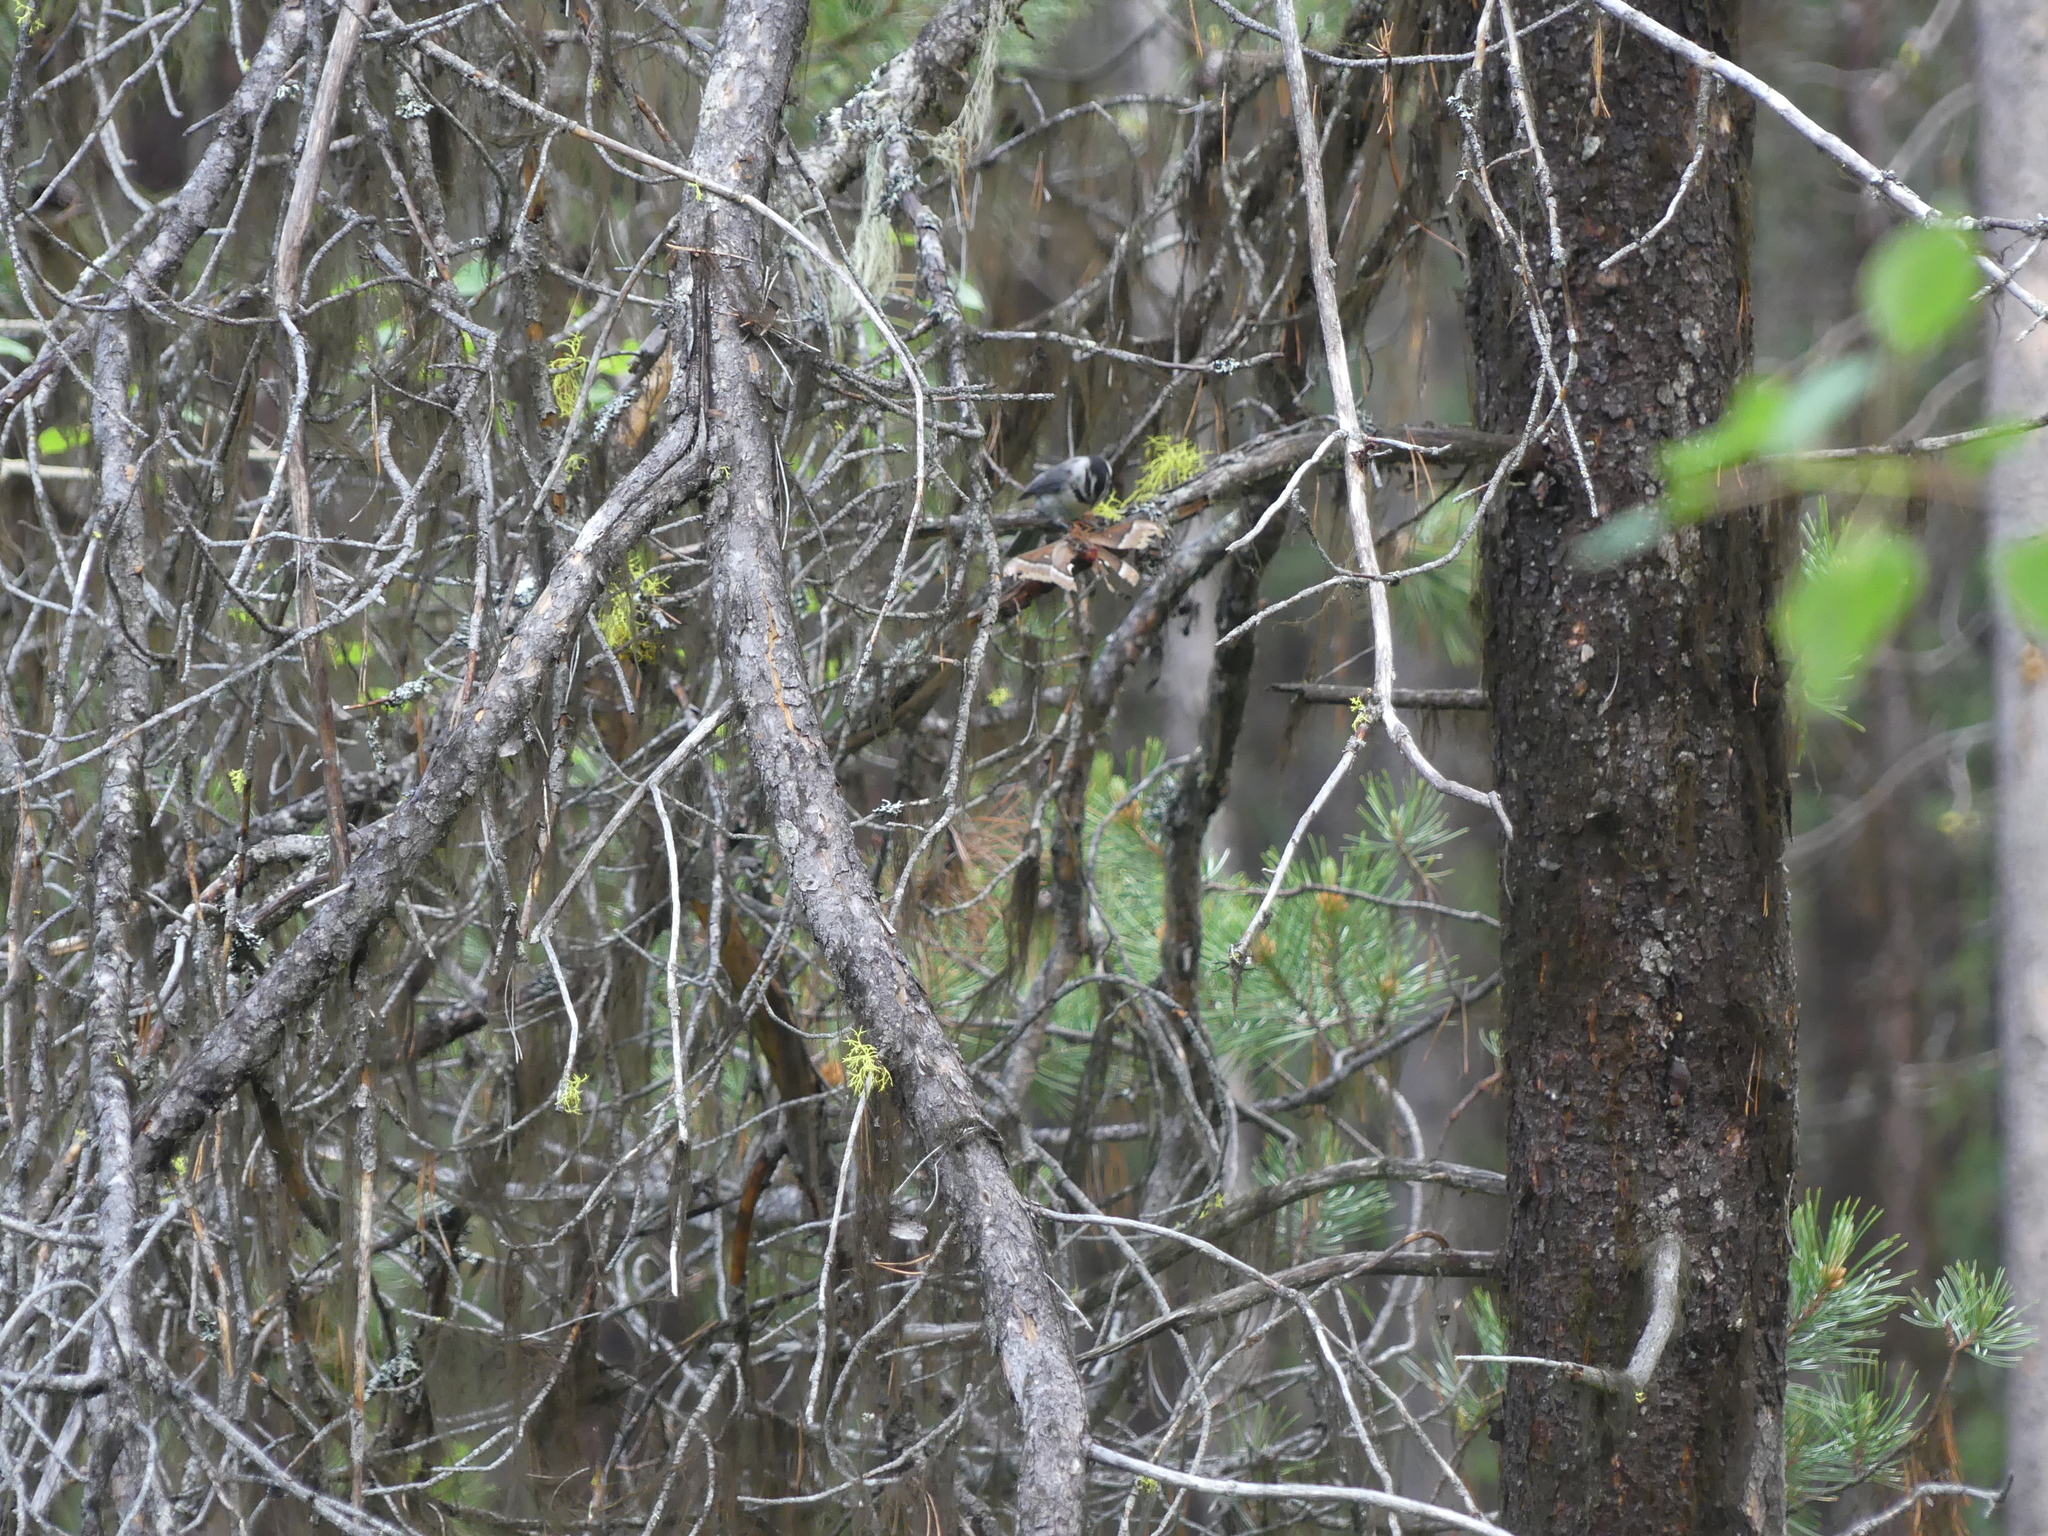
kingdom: Animalia
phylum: Chordata
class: Aves
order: Passeriformes
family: Paridae
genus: Poecile
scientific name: Poecile gambeli
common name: Mountain chickadee
